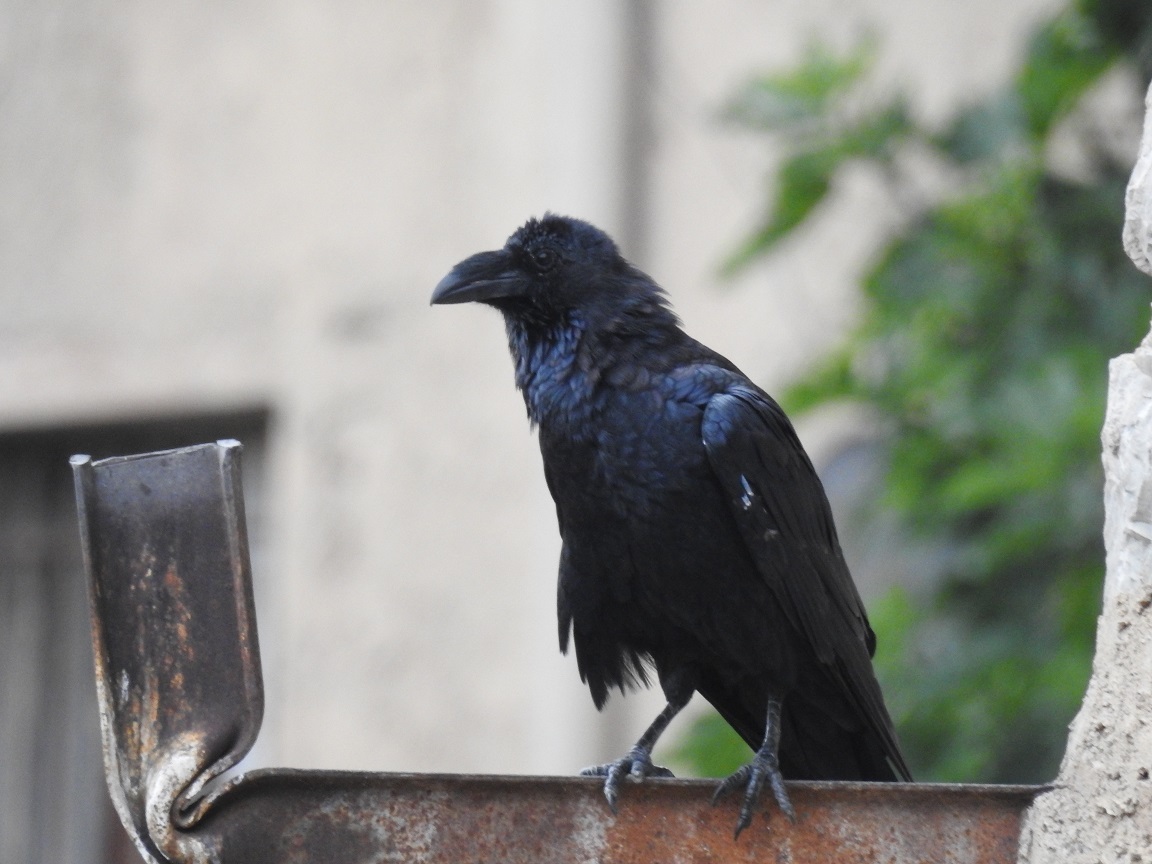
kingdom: Animalia
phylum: Chordata
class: Aves
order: Passeriformes
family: Corvidae
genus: Corvus
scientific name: Corvus corax
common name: Common raven
